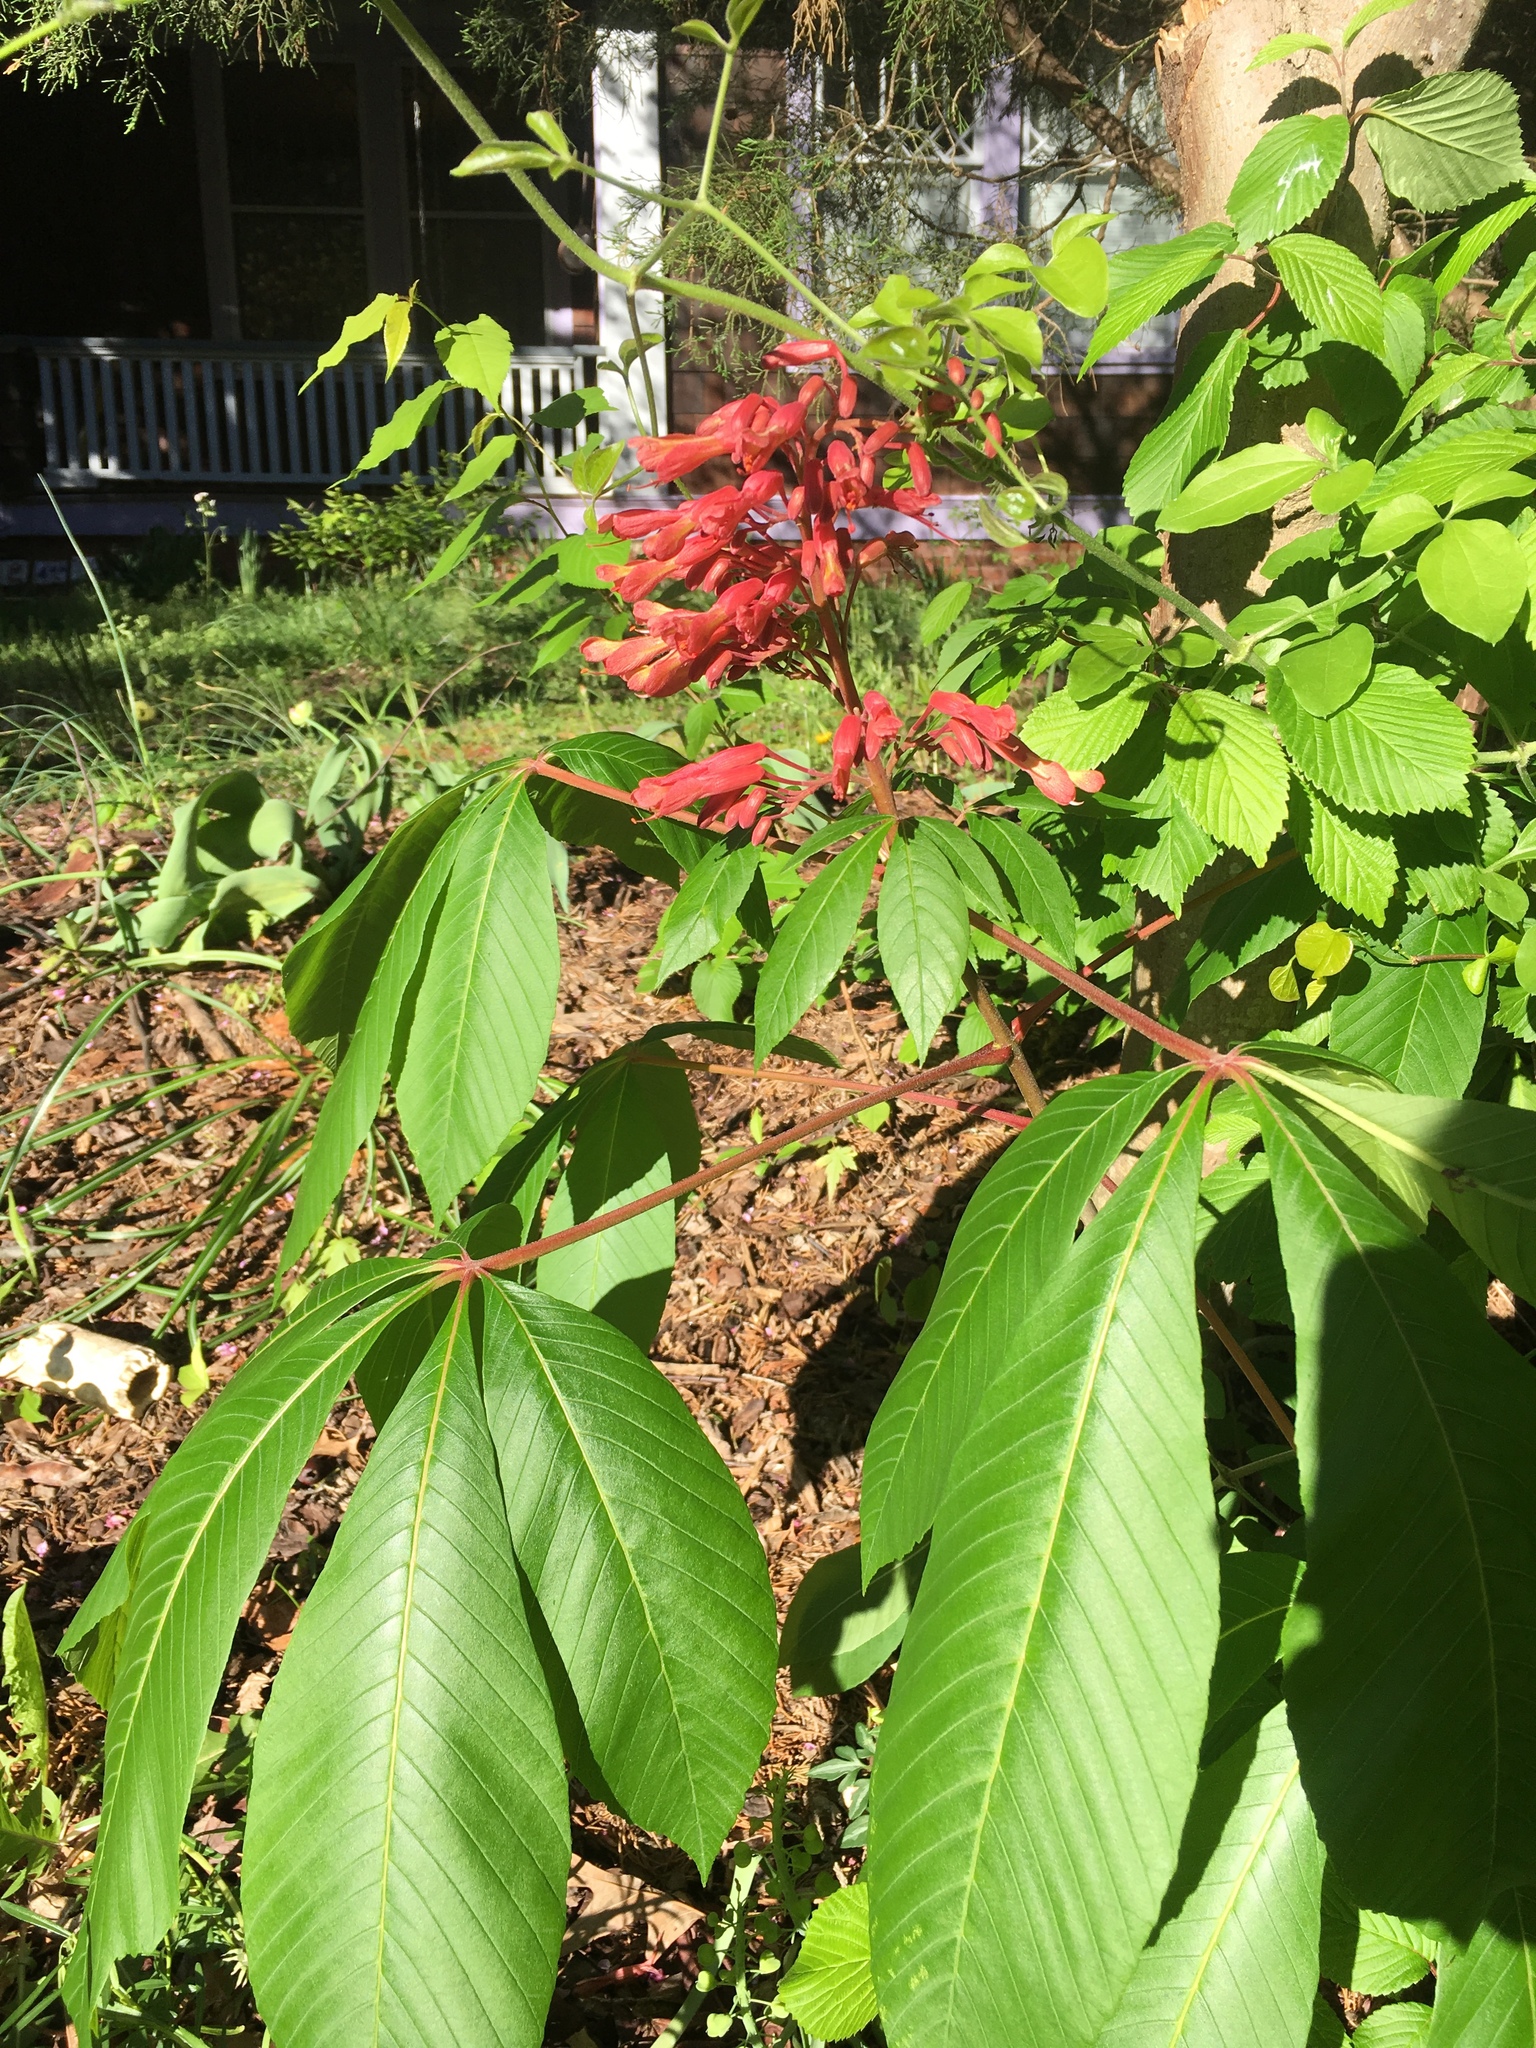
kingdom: Plantae
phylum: Tracheophyta
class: Magnoliopsida
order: Sapindales
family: Sapindaceae
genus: Aesculus
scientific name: Aesculus pavia
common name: Red buckeye
